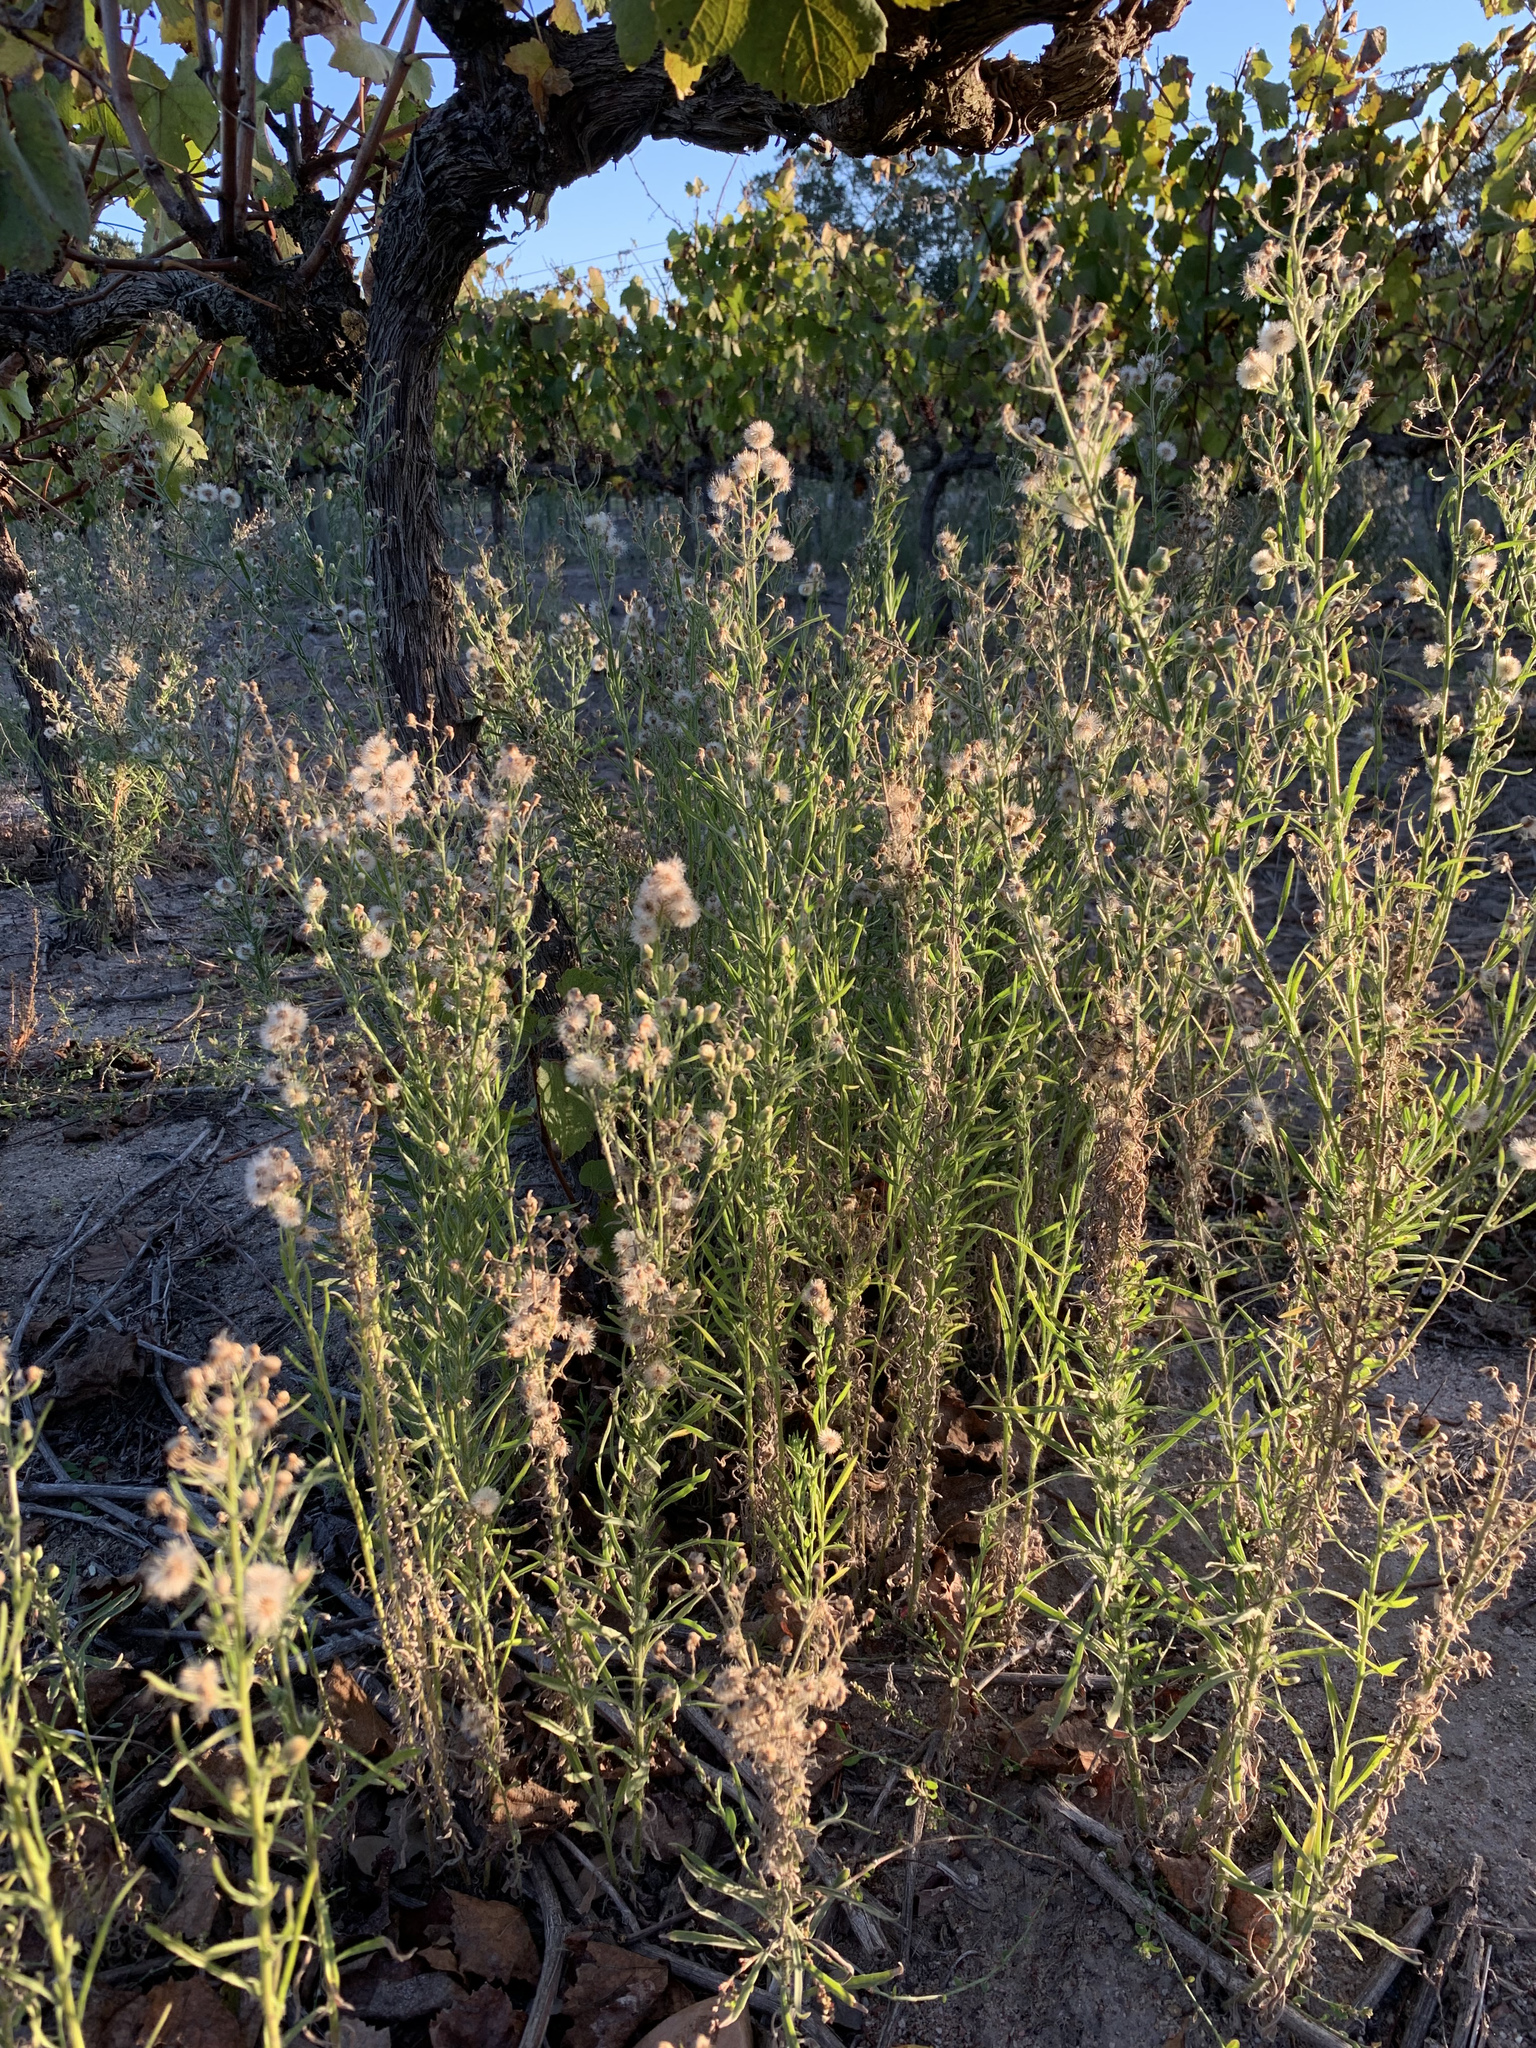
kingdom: Plantae
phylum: Tracheophyta
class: Magnoliopsida
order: Asterales
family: Asteraceae
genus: Erigeron
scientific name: Erigeron bonariensis
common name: Argentine fleabane
